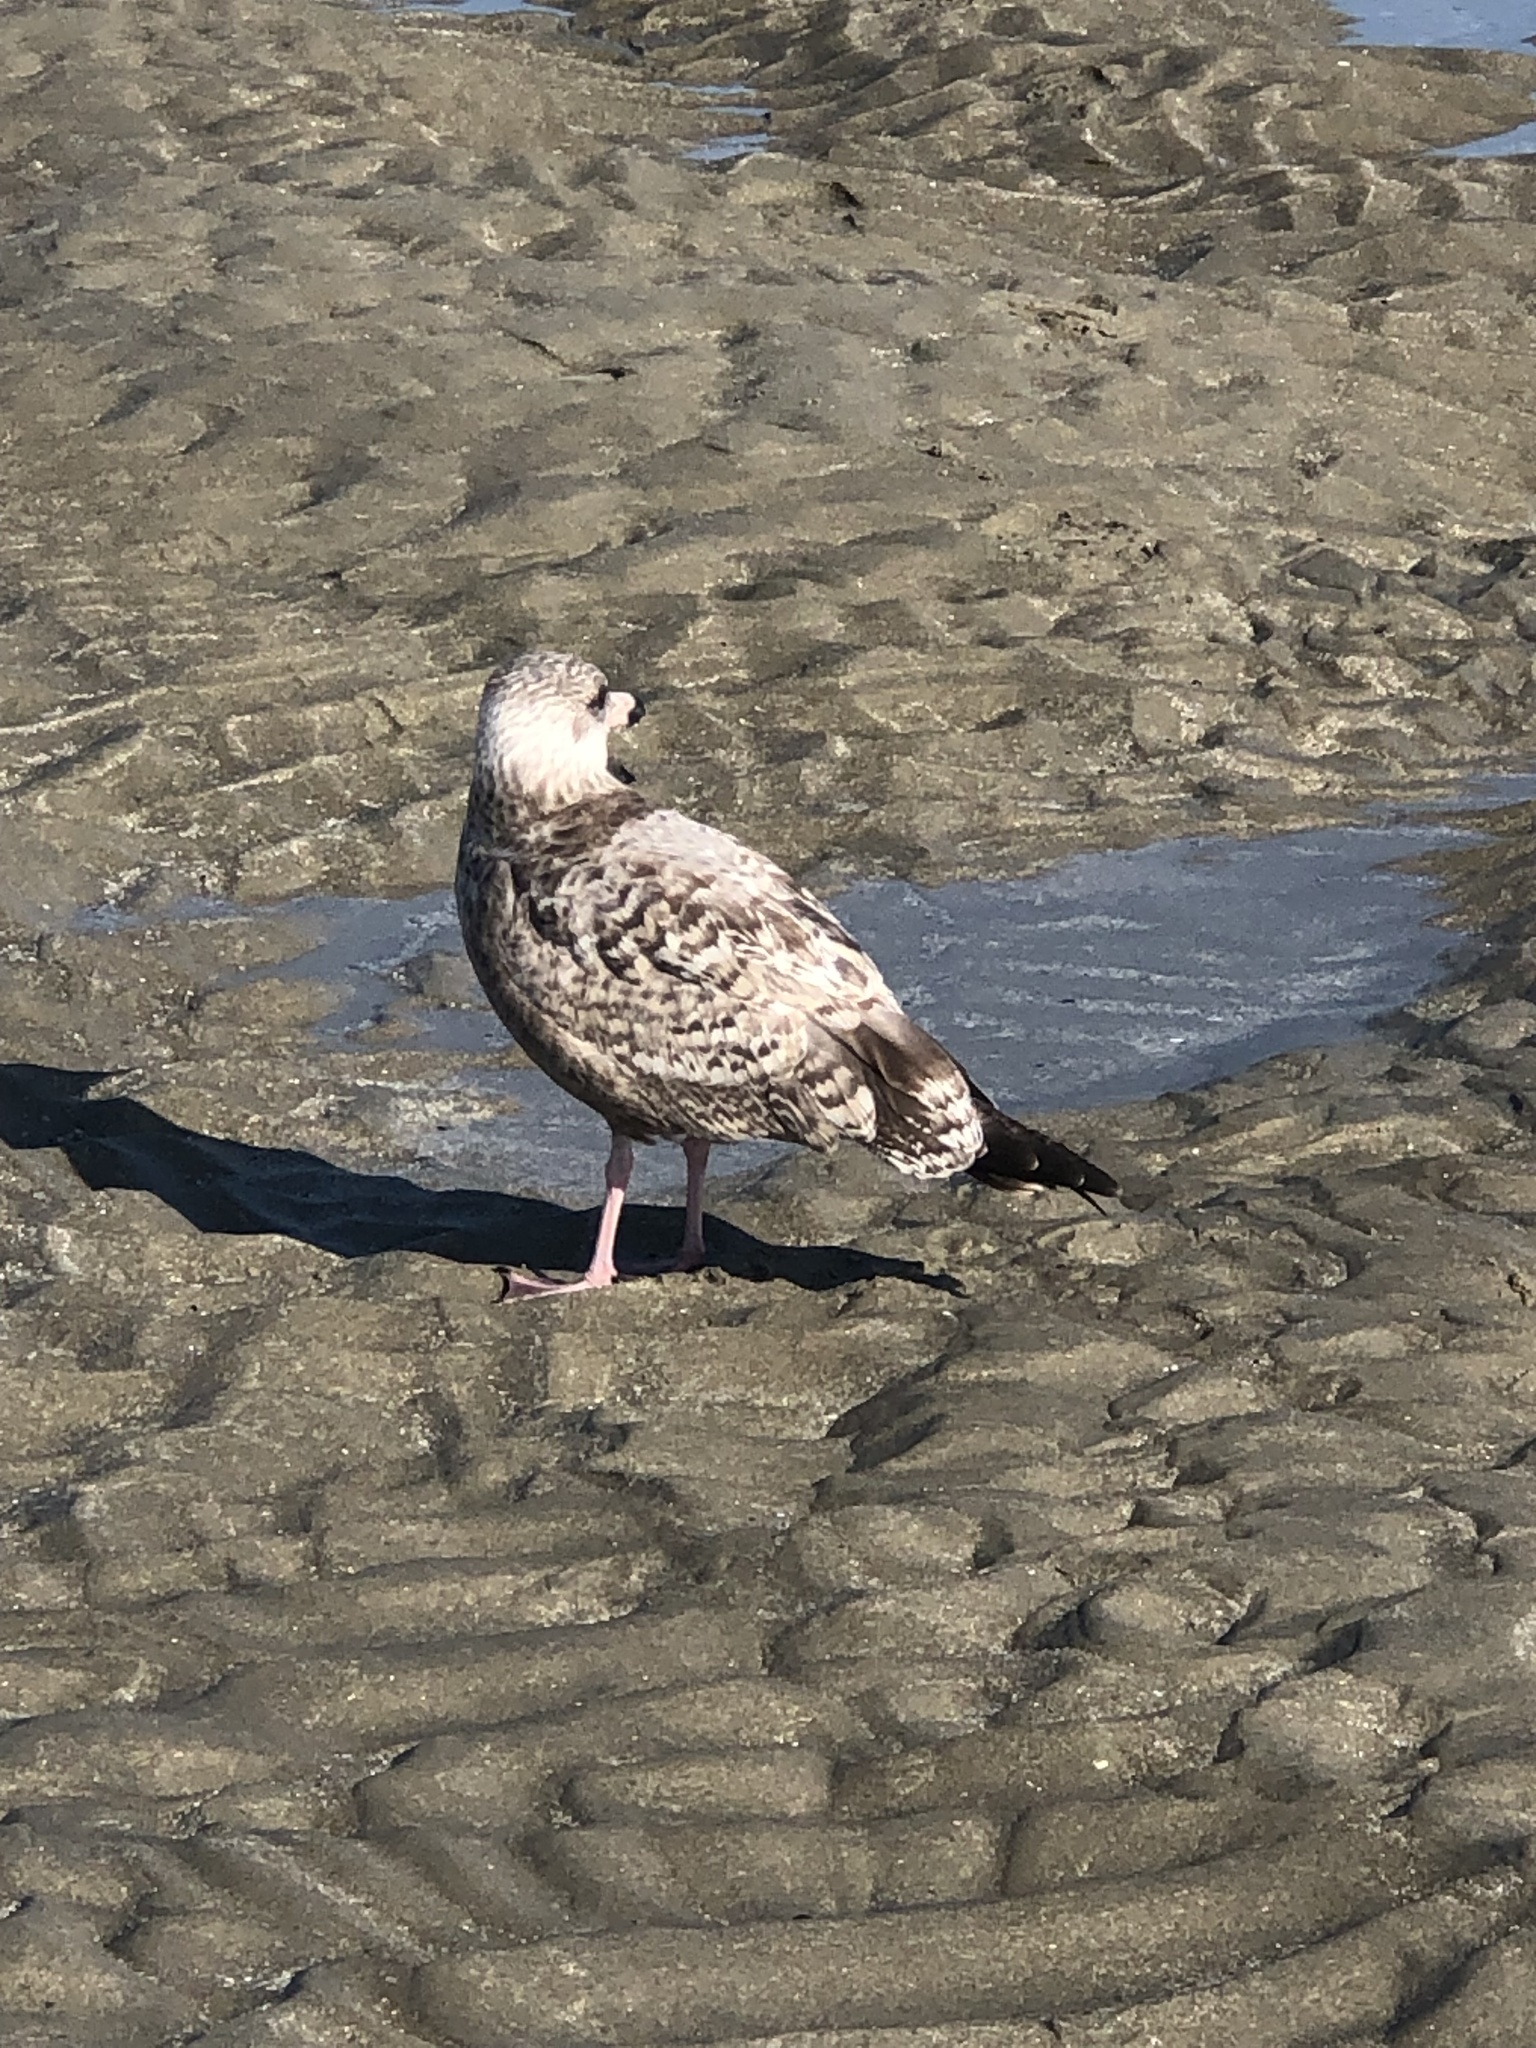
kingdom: Animalia
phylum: Chordata
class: Aves
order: Charadriiformes
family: Laridae
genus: Larus
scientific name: Larus delawarensis
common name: Ring-billed gull
